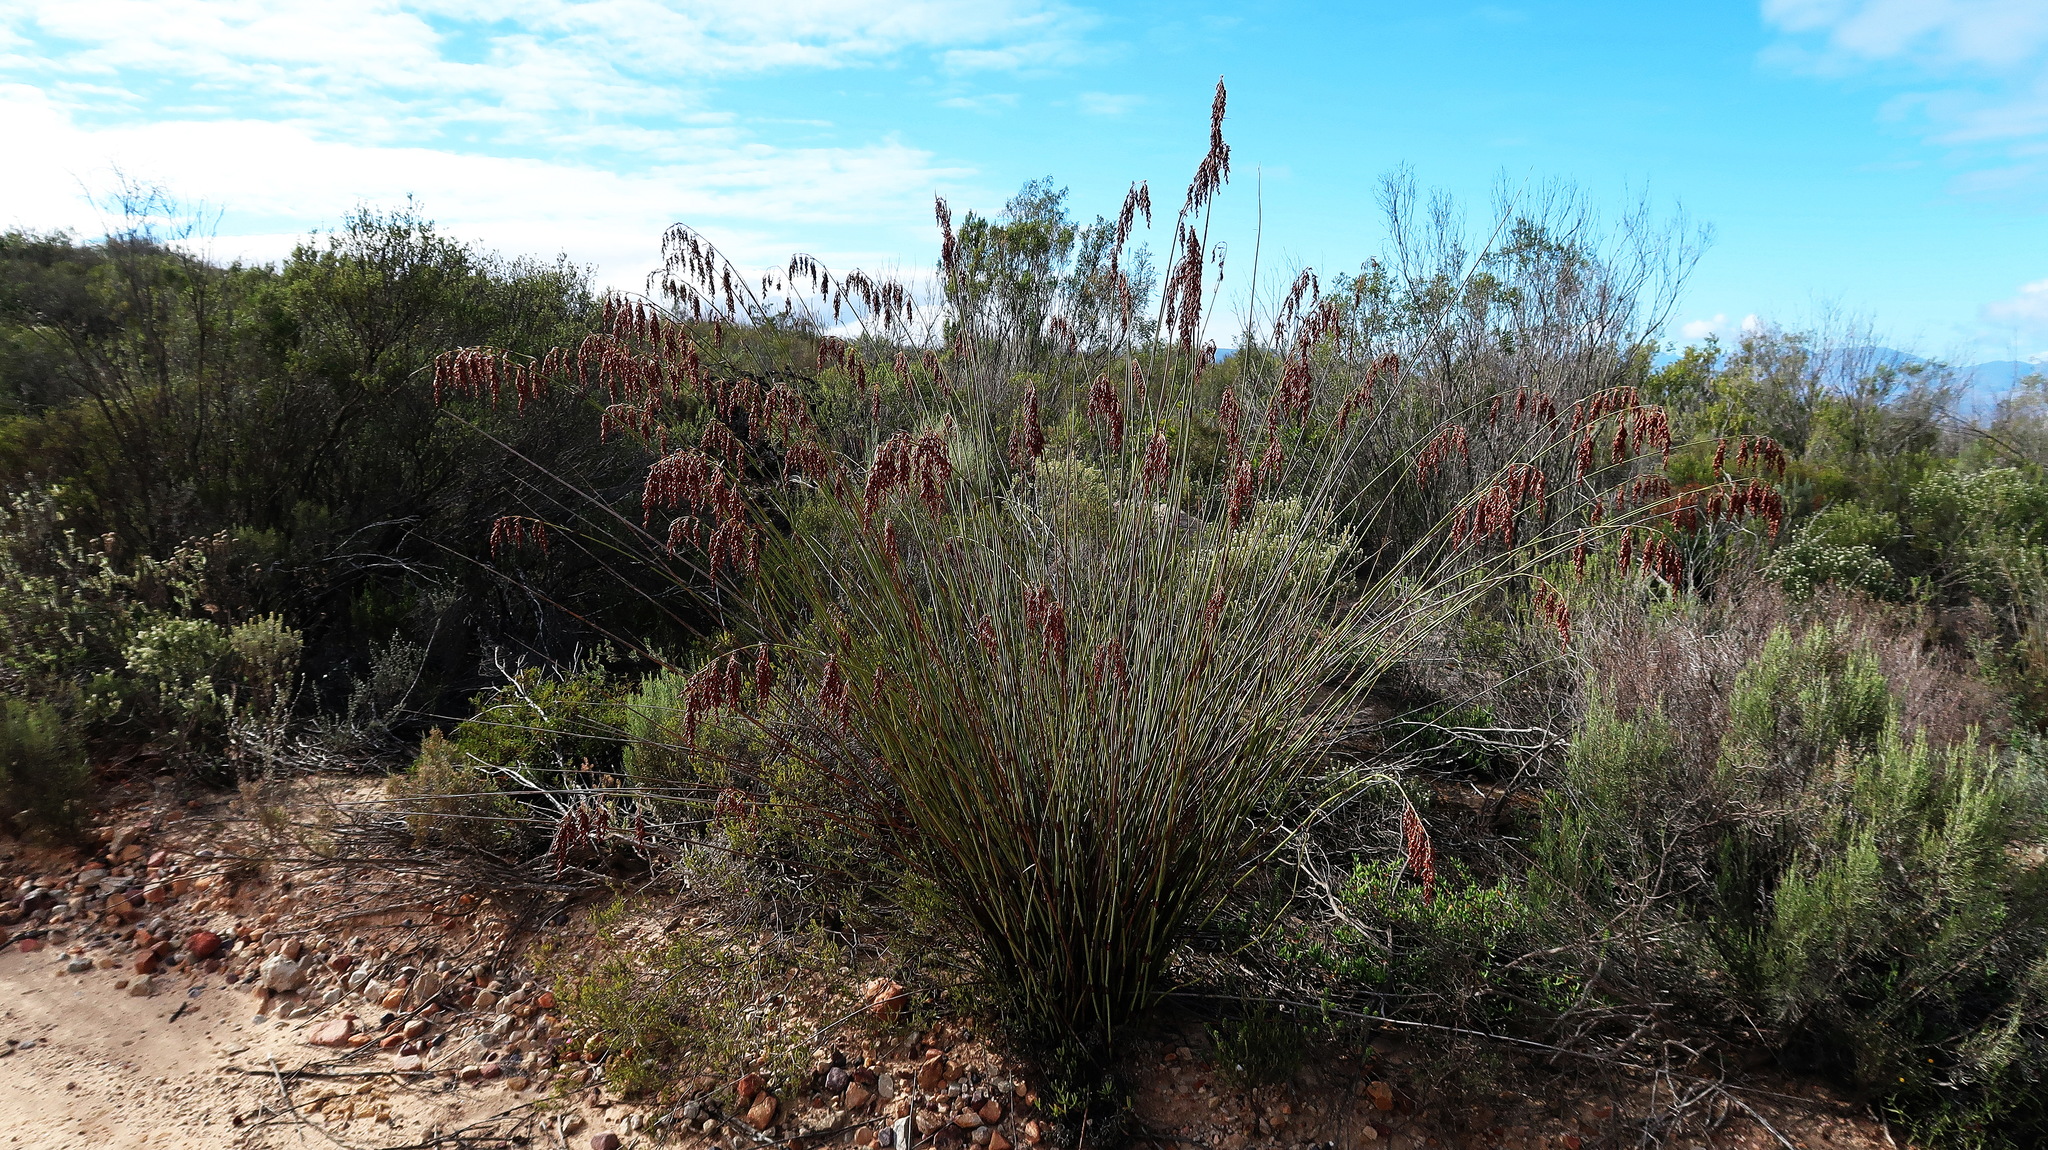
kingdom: Plantae
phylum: Tracheophyta
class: Liliopsida
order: Poales
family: Restionaceae
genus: Rhodocoma
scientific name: Rhodocoma arida
